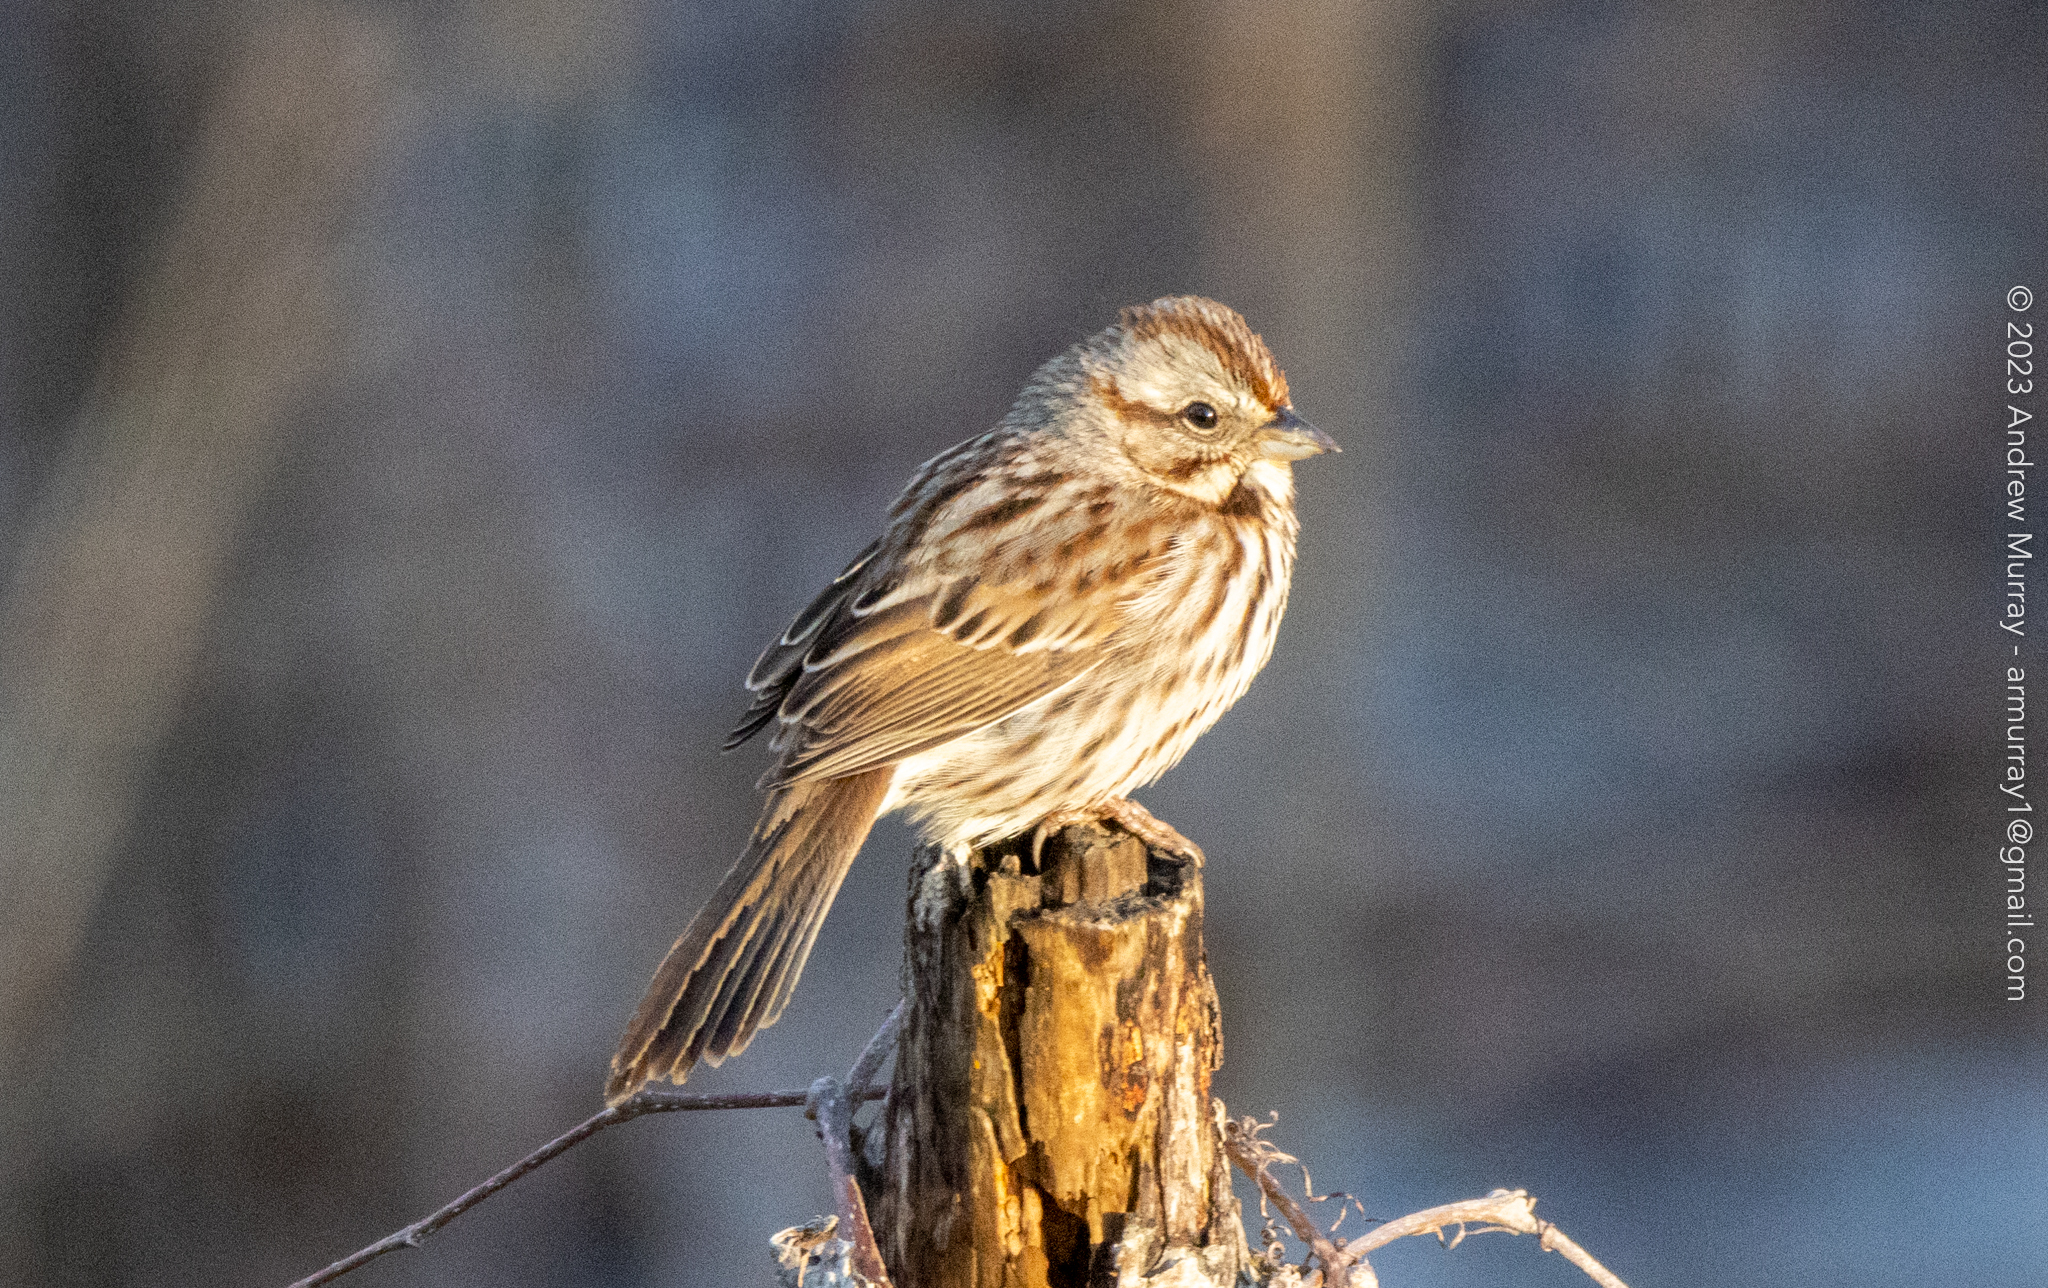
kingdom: Animalia
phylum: Chordata
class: Aves
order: Passeriformes
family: Passerellidae
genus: Melospiza
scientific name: Melospiza melodia
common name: Song sparrow
